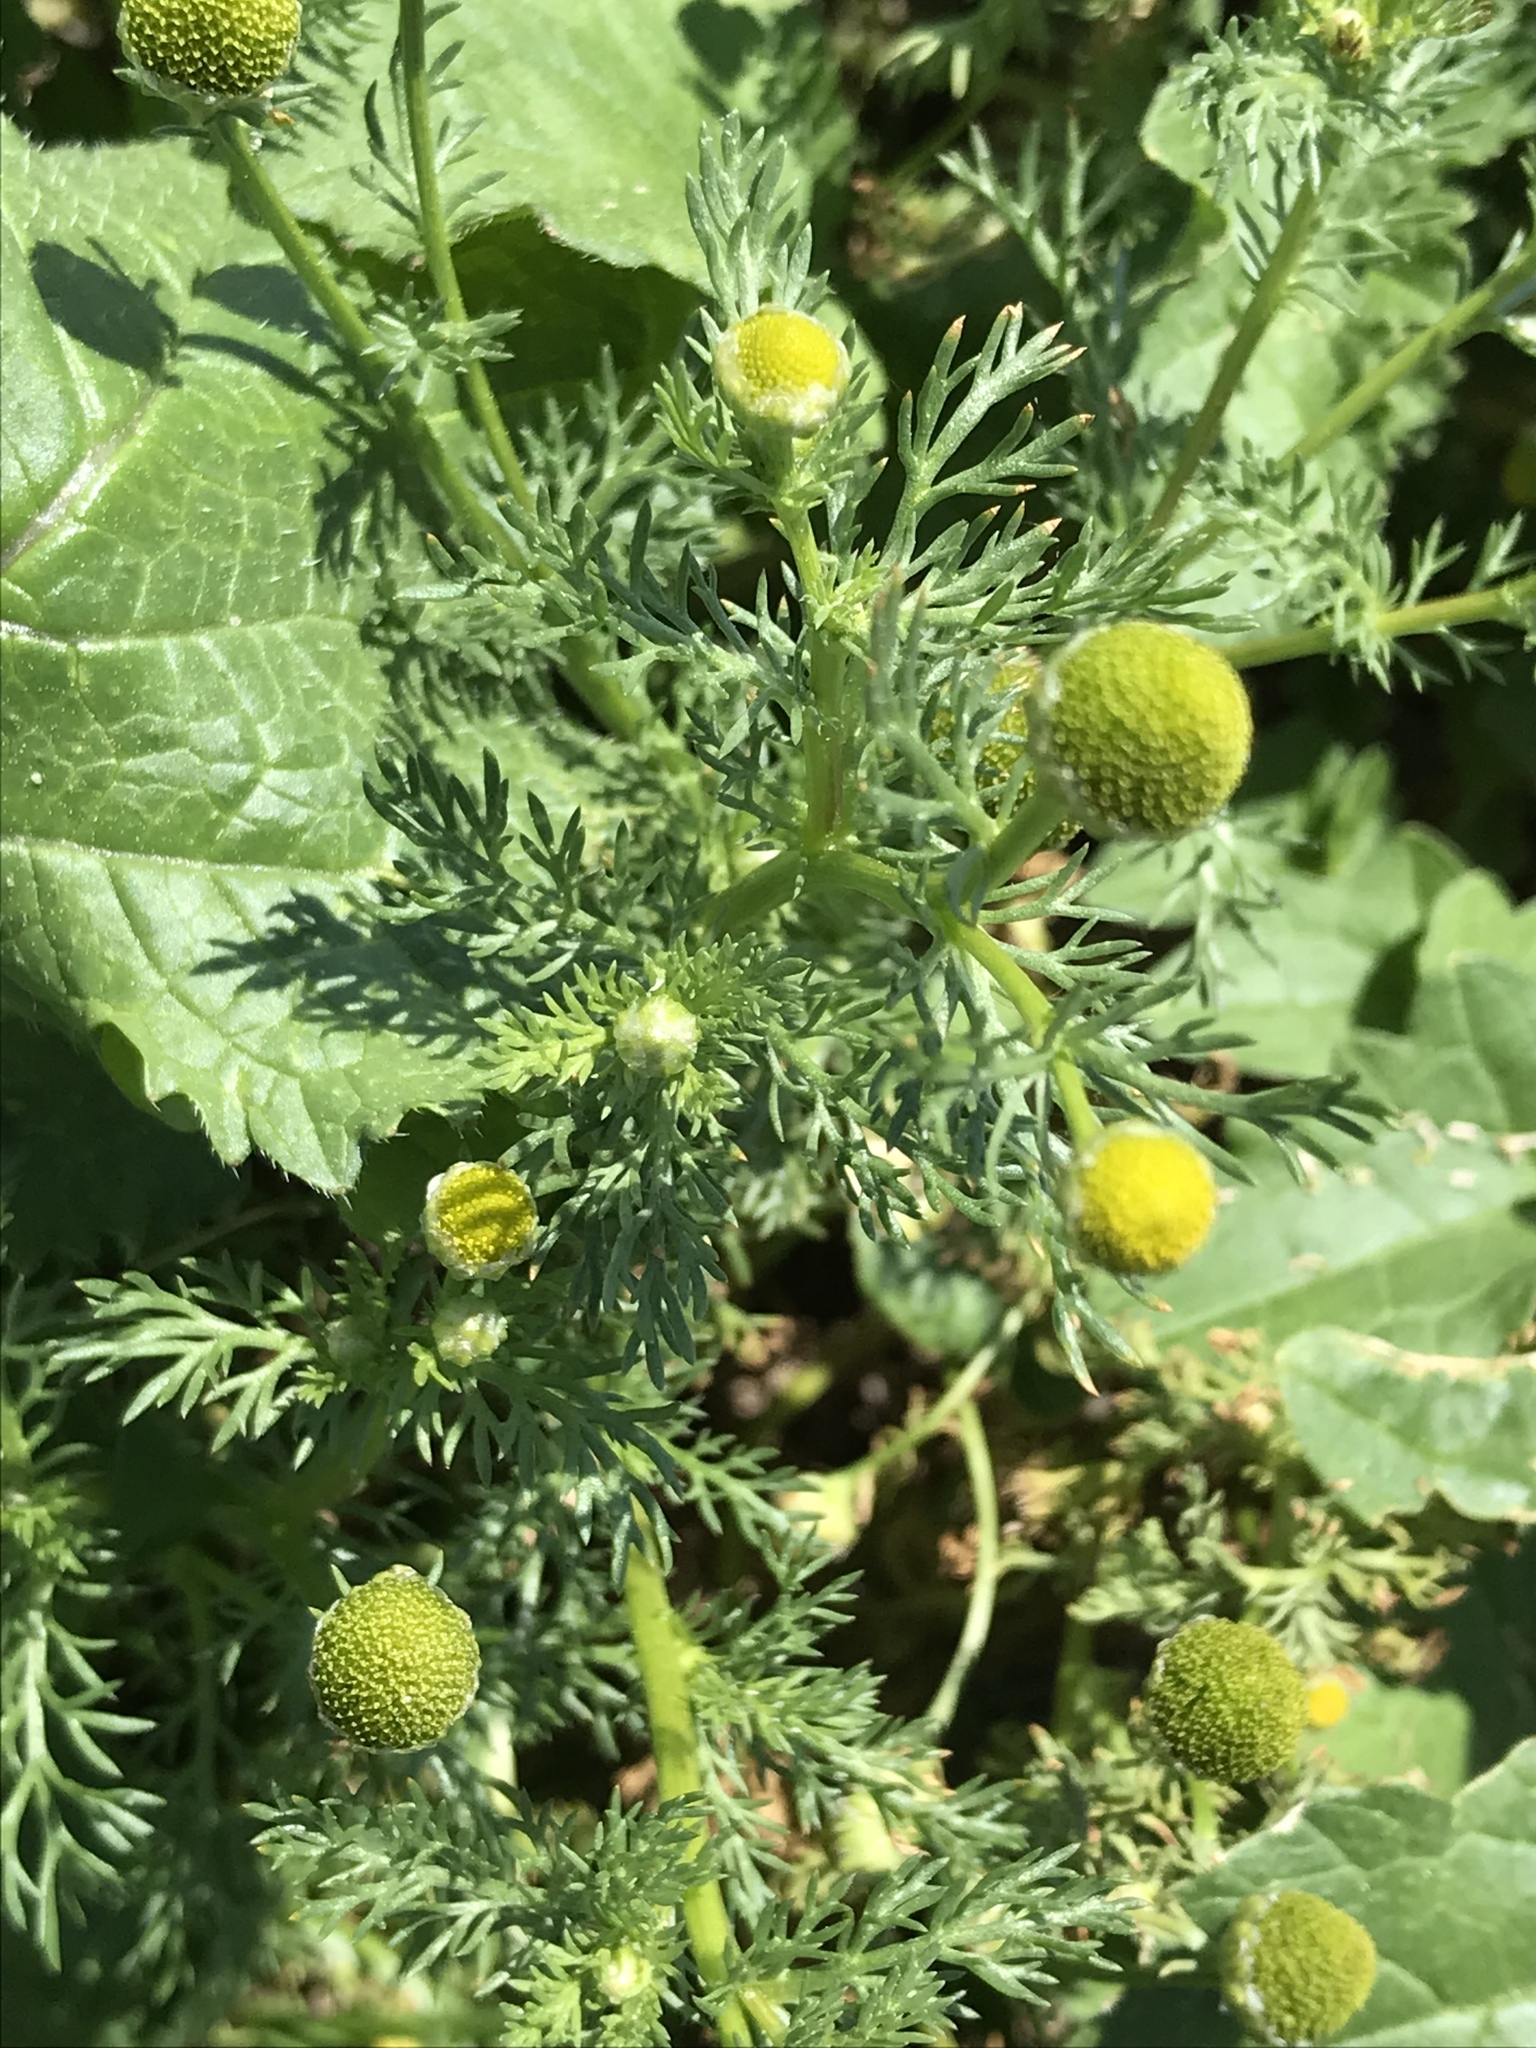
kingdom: Plantae
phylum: Tracheophyta
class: Magnoliopsida
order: Asterales
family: Asteraceae
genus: Matricaria
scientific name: Matricaria discoidea
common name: Disc mayweed
